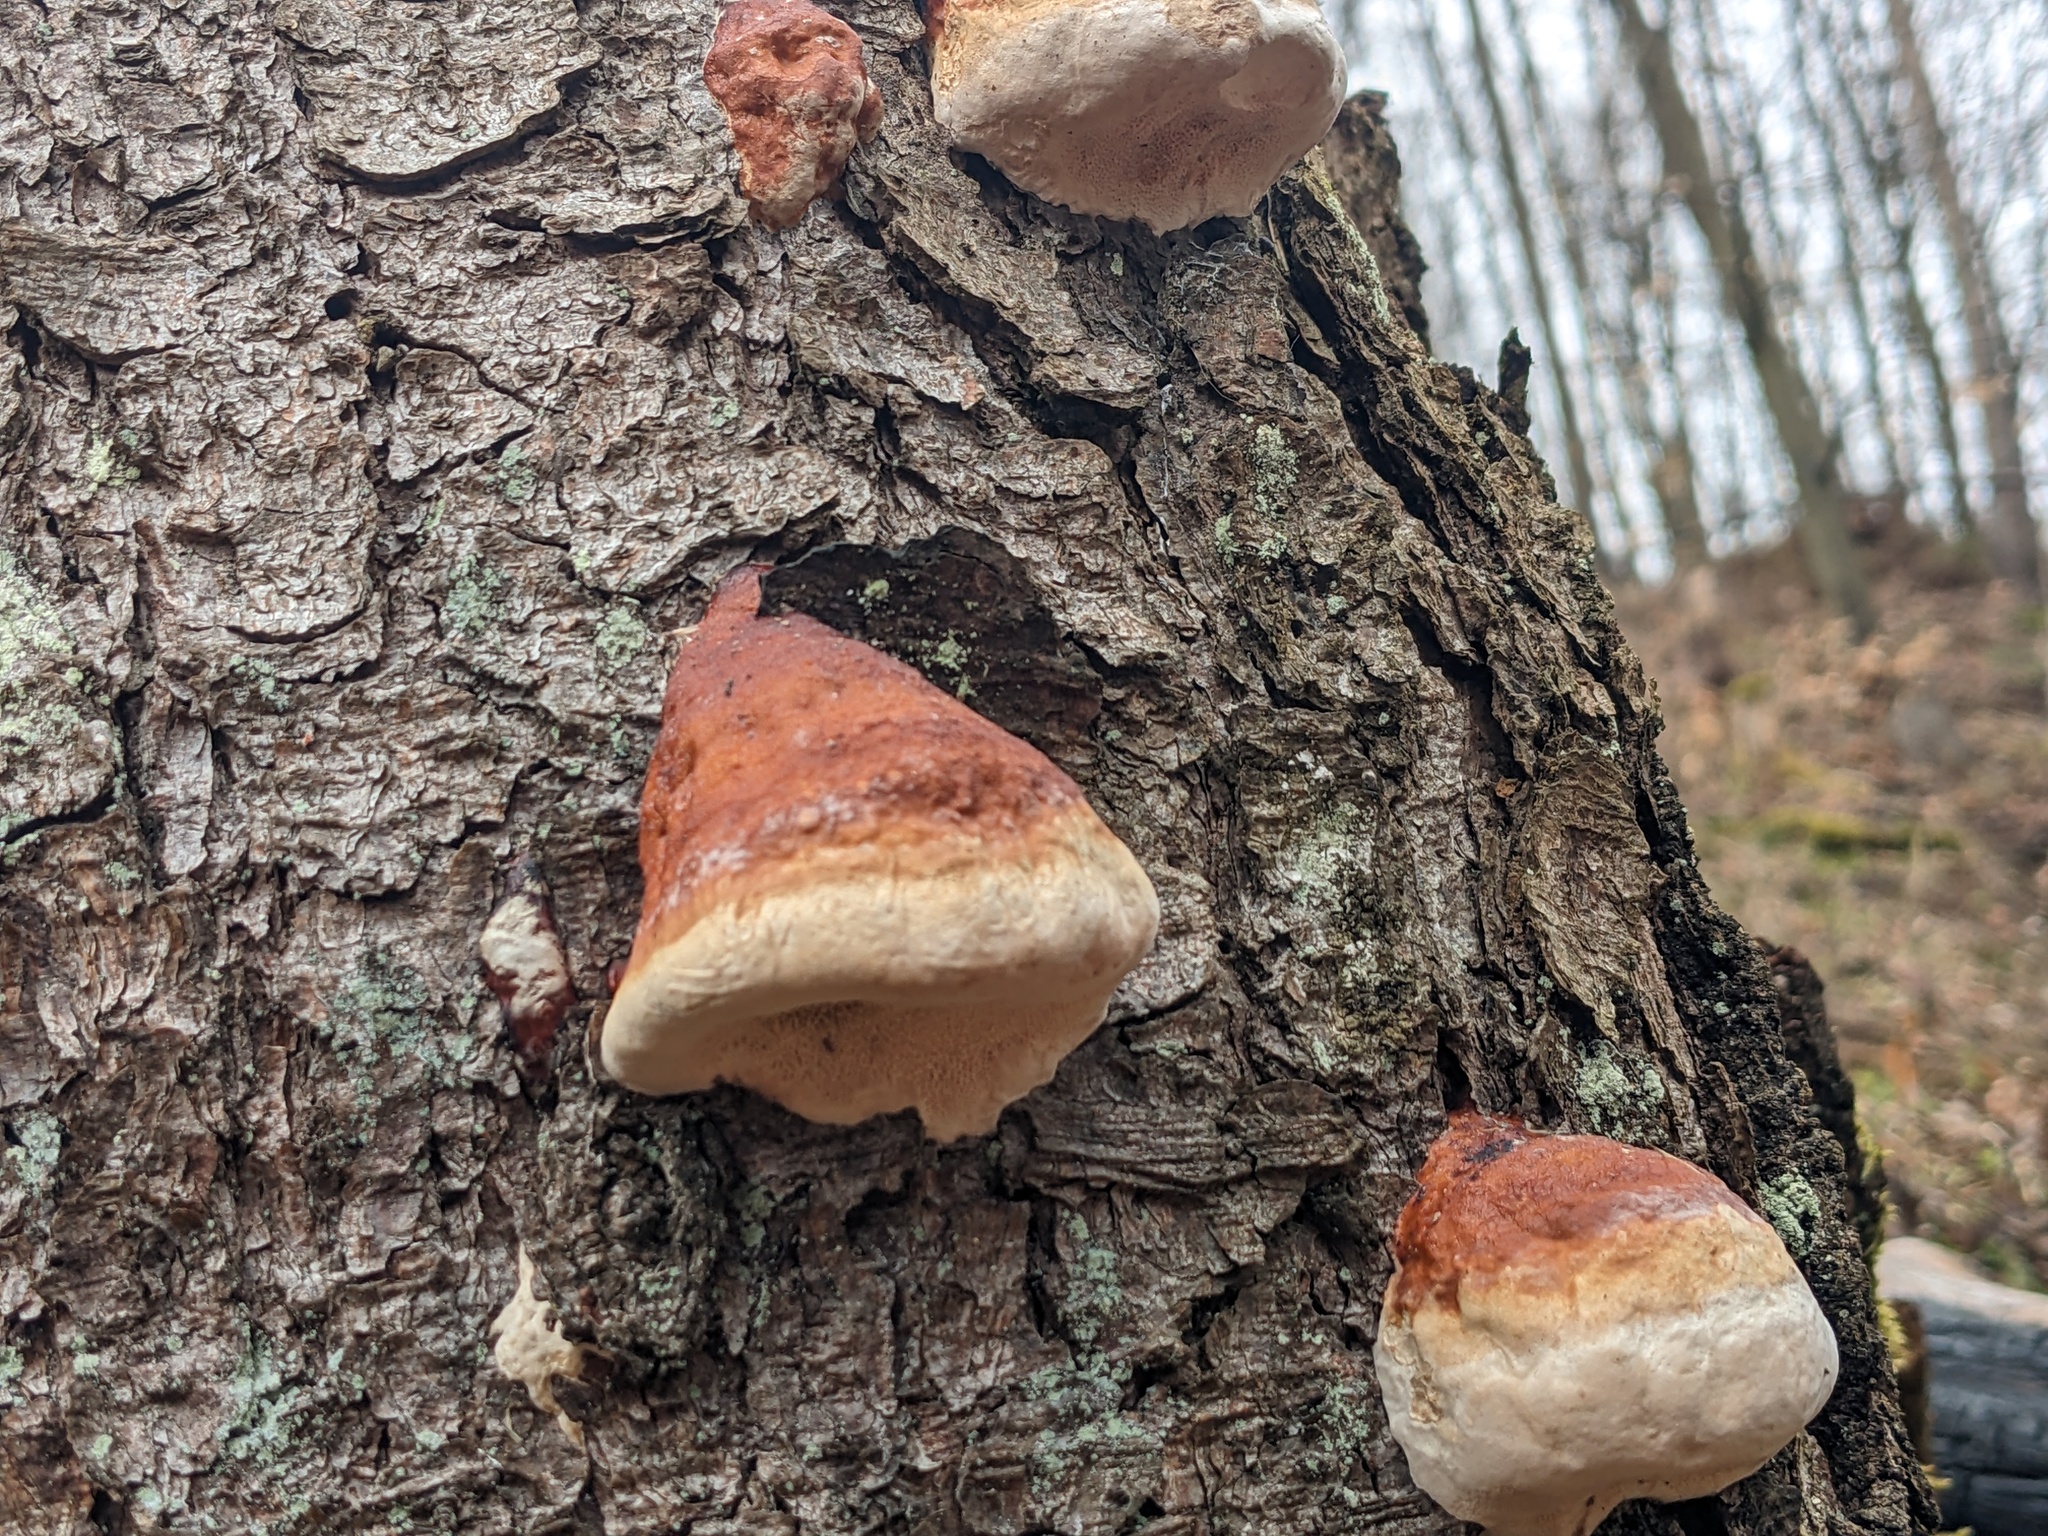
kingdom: Fungi
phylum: Basidiomycota
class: Agaricomycetes
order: Polyporales
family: Fomitopsidaceae
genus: Fomitopsis
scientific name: Fomitopsis pinicola
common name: Red-belted bracket
